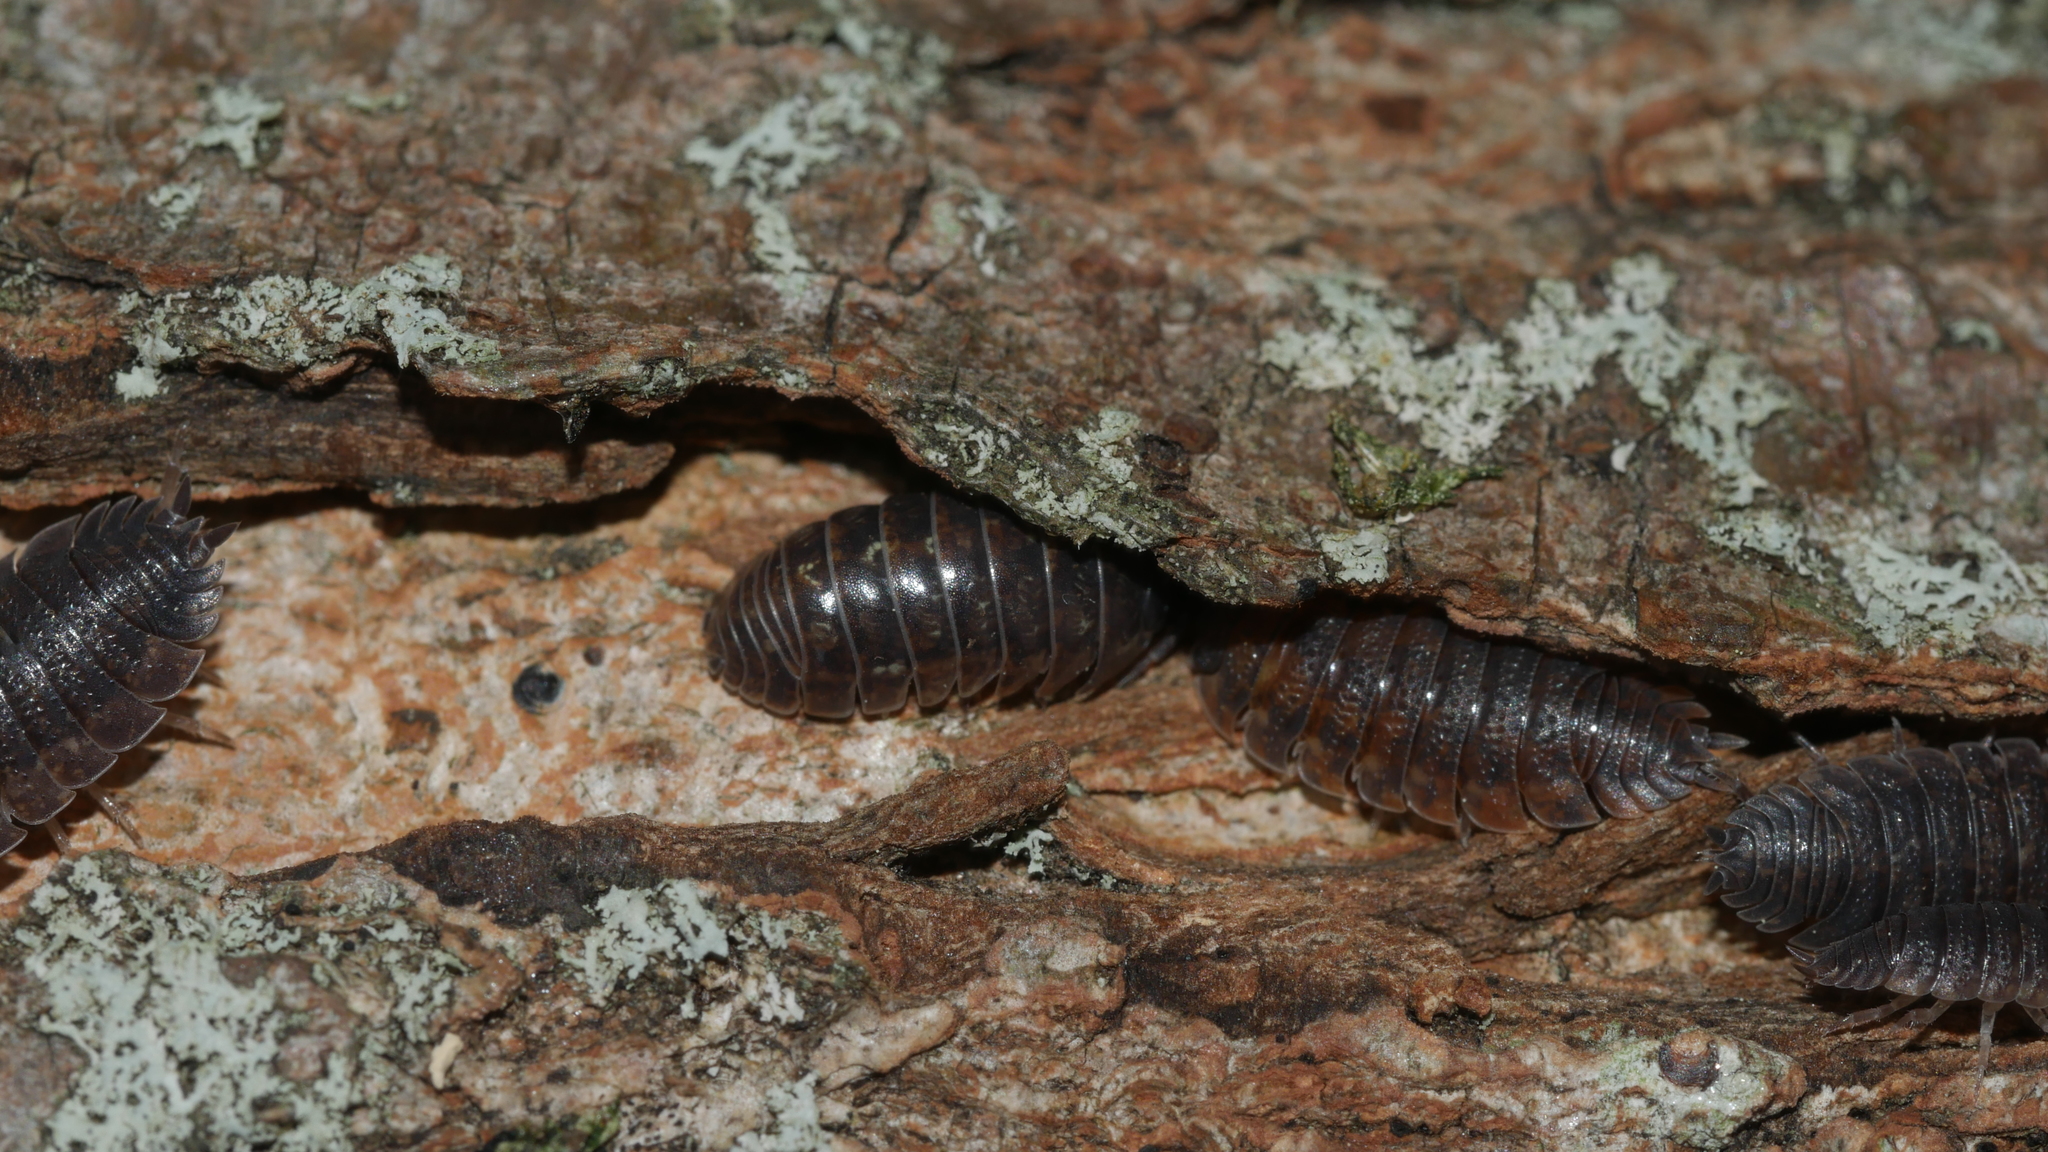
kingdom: Animalia
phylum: Arthropoda
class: Malacostraca
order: Isopoda
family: Armadillidiidae
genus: Armadillidium
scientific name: Armadillidium vulgare
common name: Common pill woodlouse
